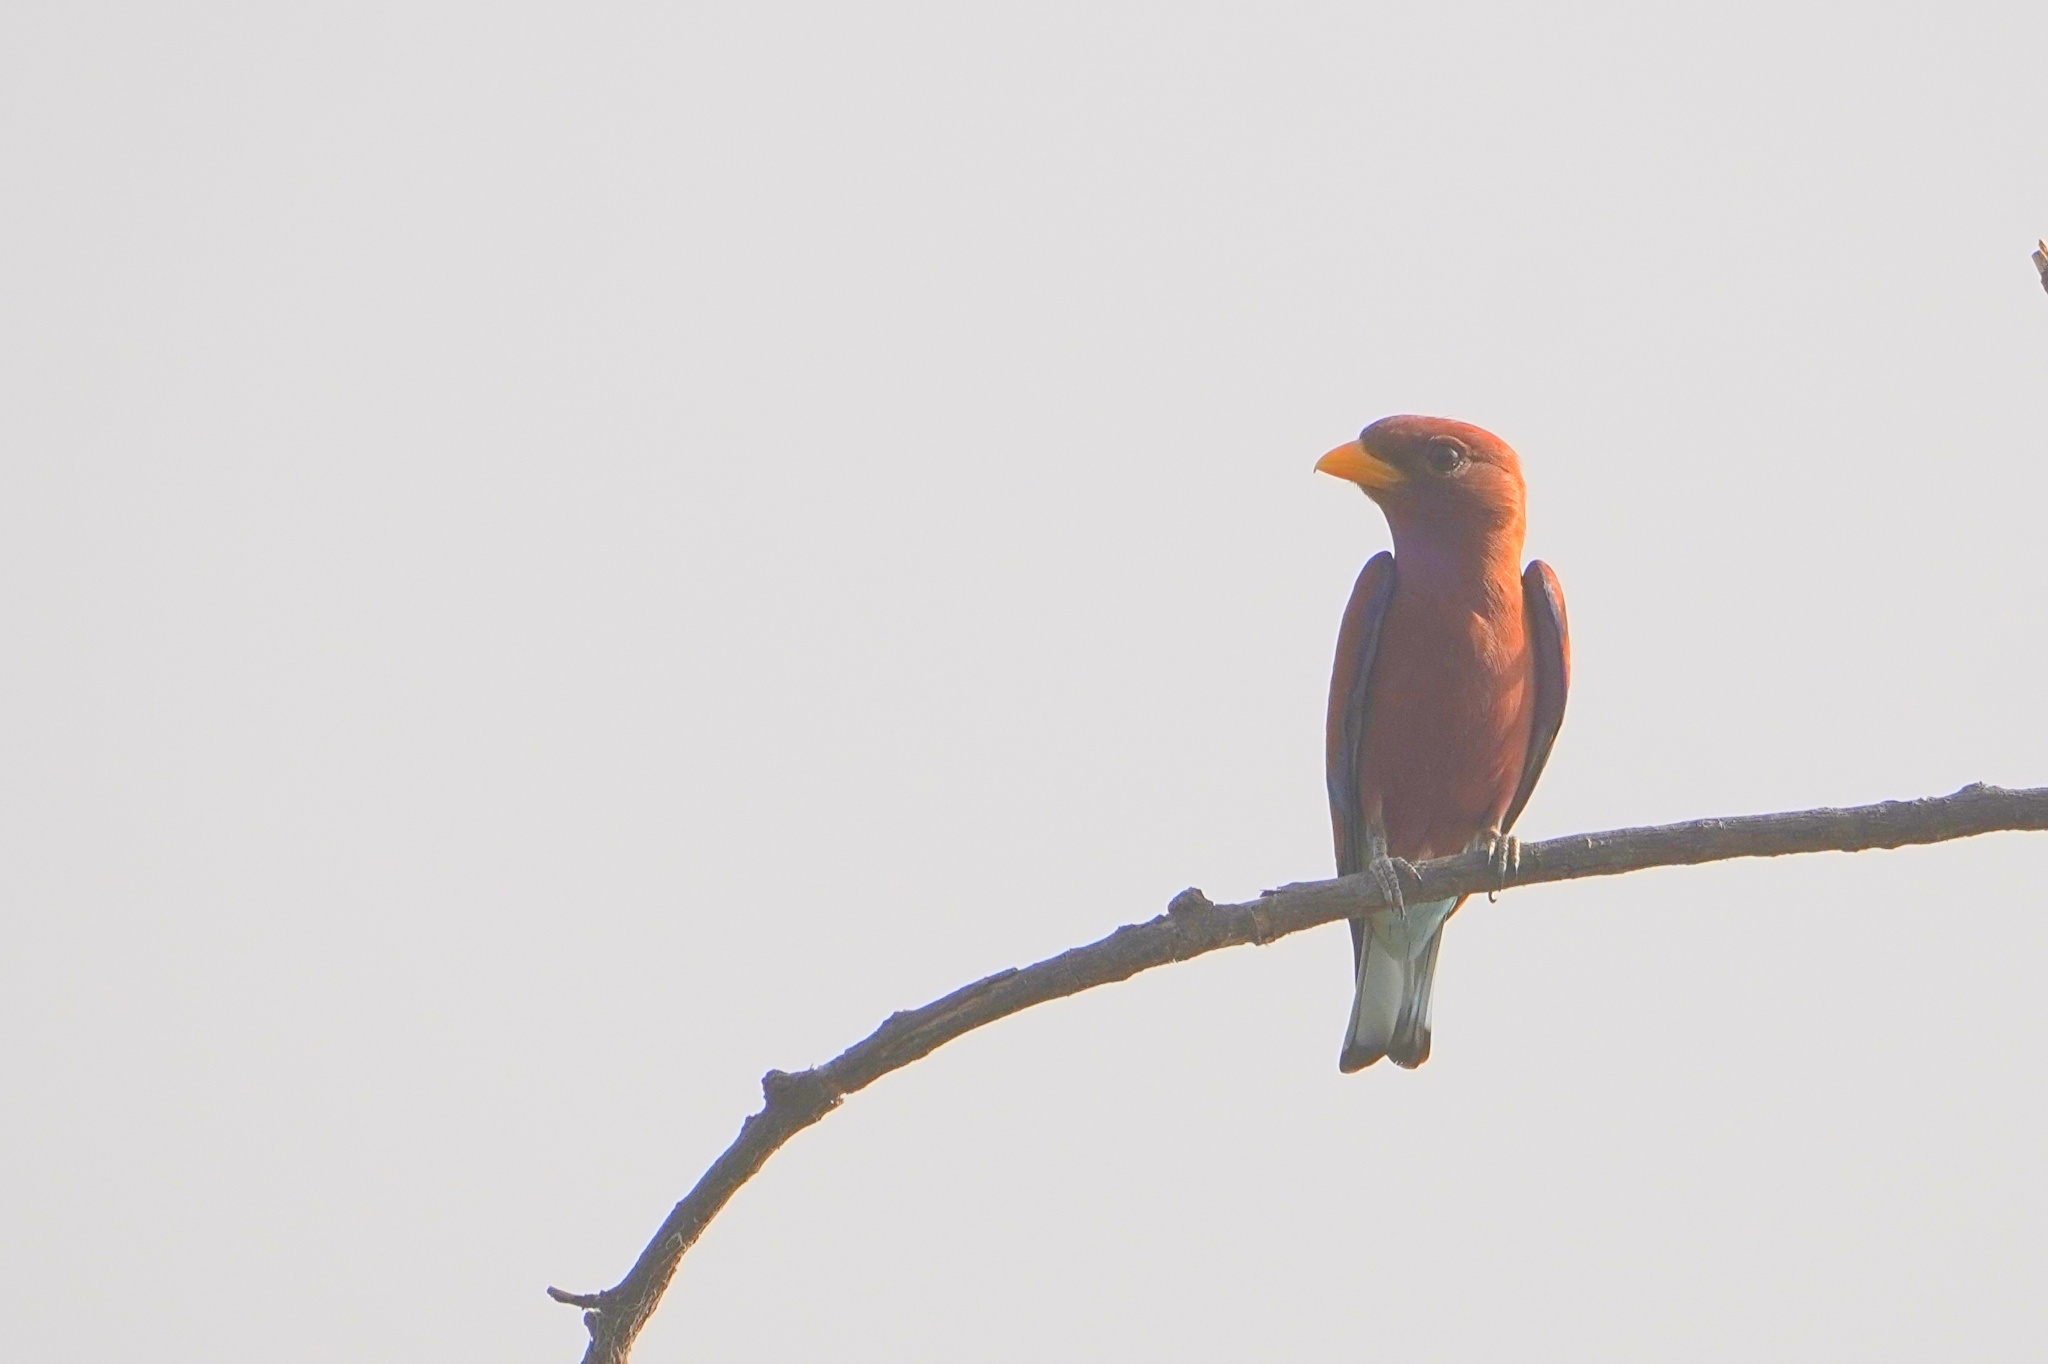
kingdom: Animalia
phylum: Chordata
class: Aves
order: Coraciiformes
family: Coraciidae
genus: Eurystomus
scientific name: Eurystomus glaucurus
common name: Broad-billed roller
